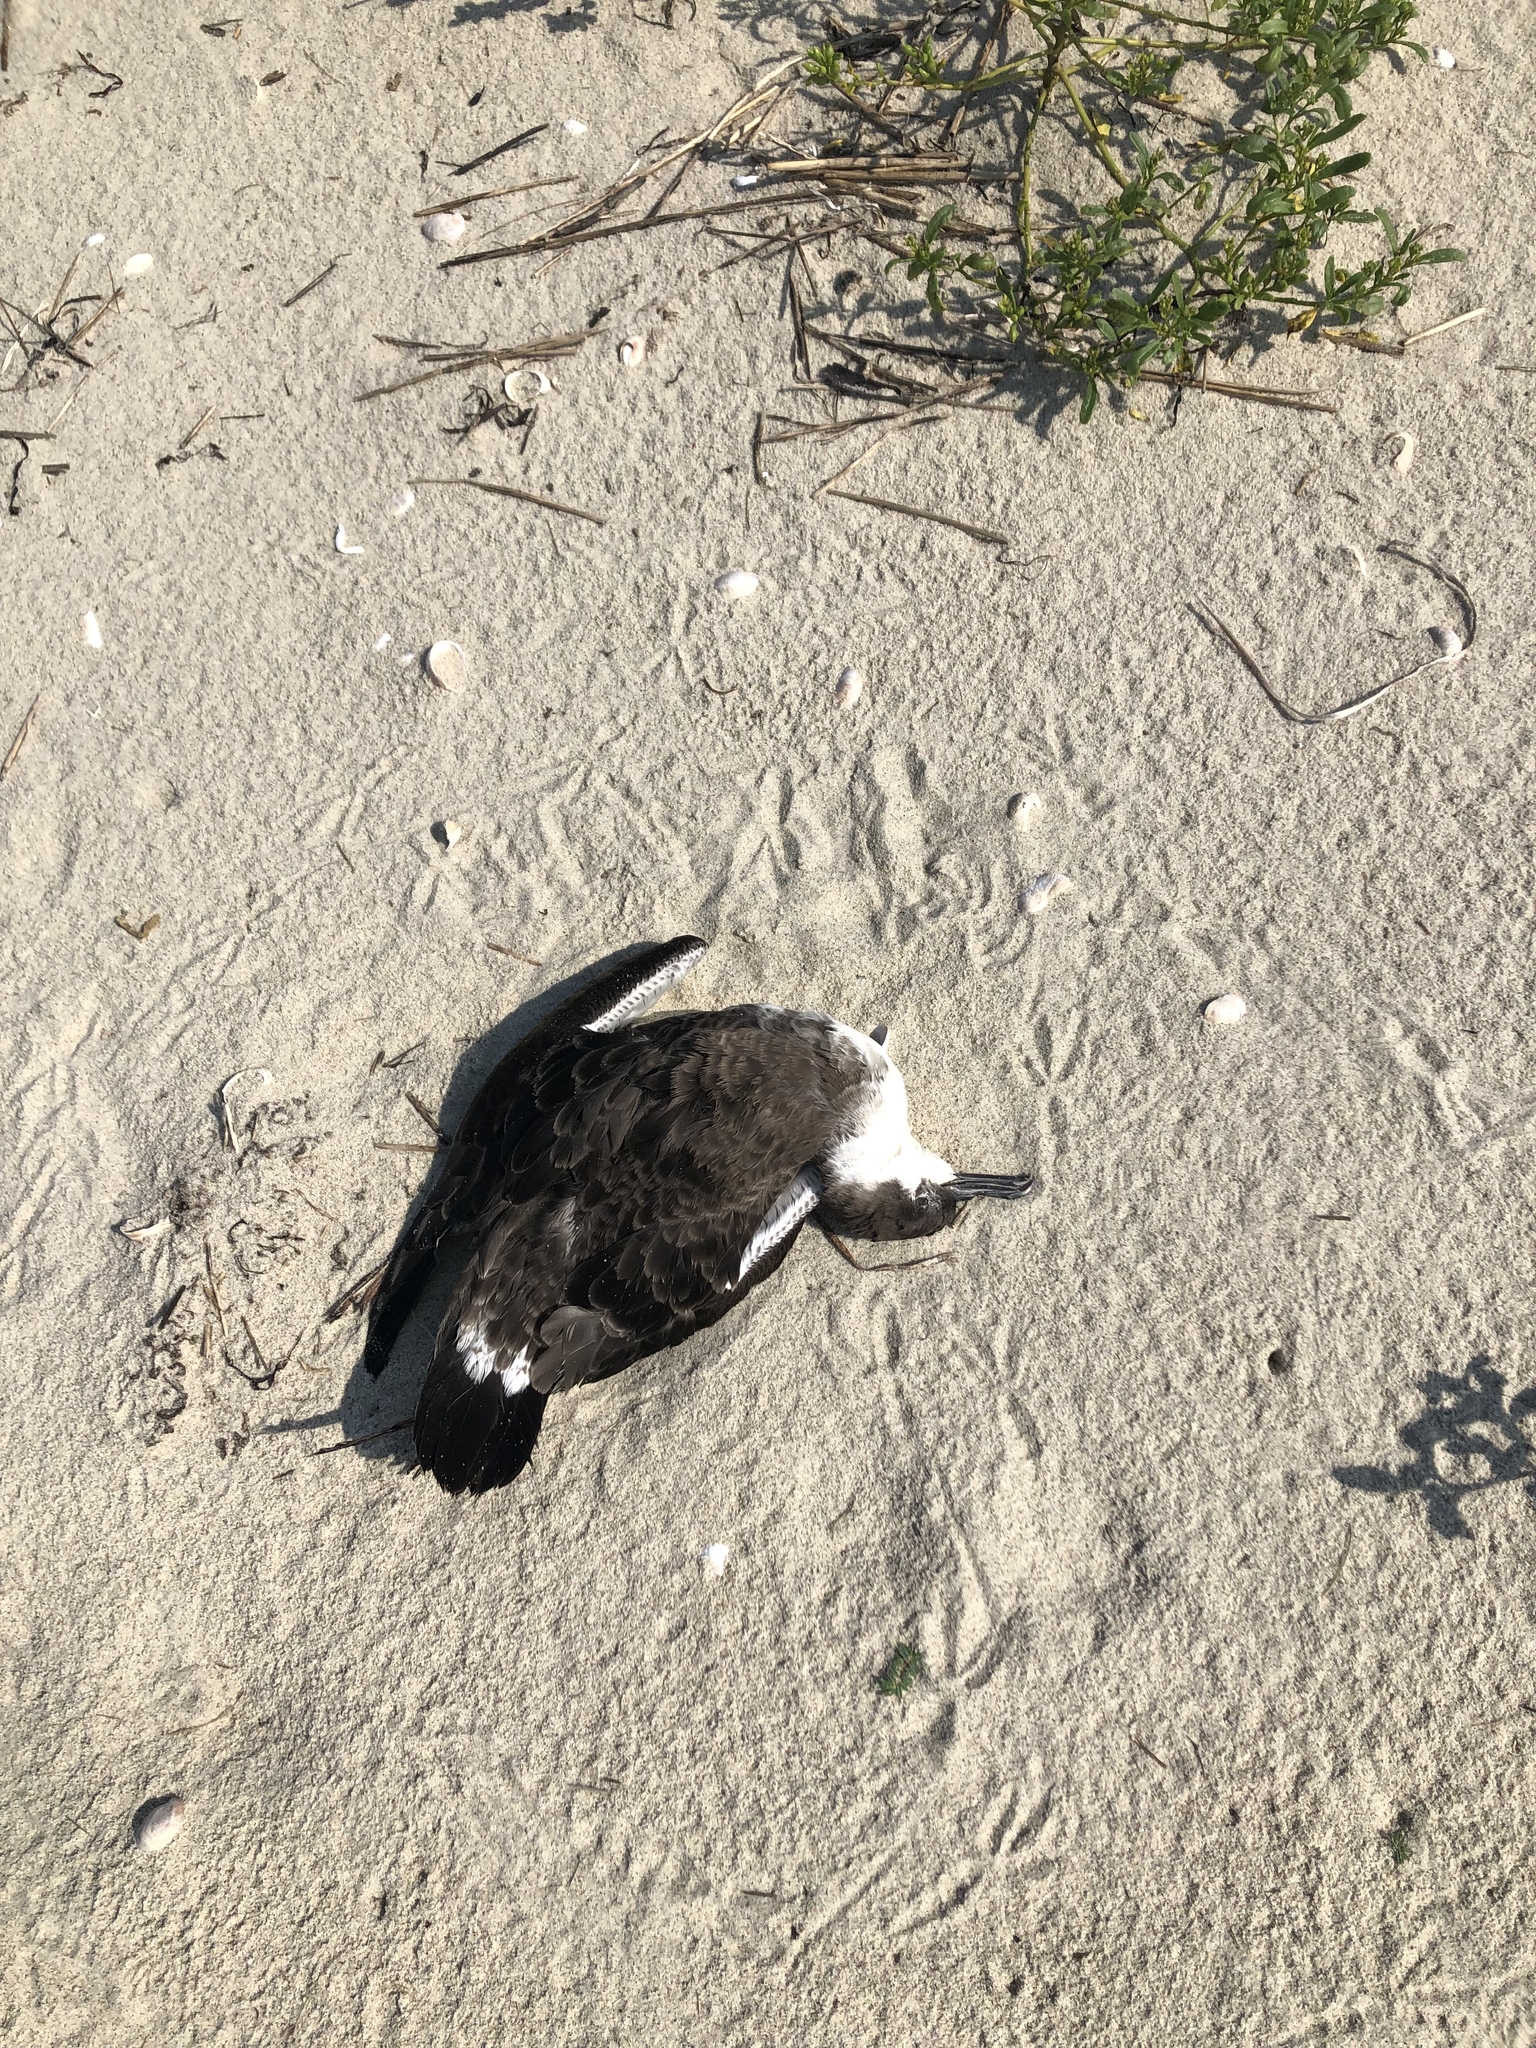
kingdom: Animalia
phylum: Chordata
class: Aves
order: Procellariiformes
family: Procellariidae
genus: Puffinus
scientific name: Puffinus gravis
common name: Great shearwater
